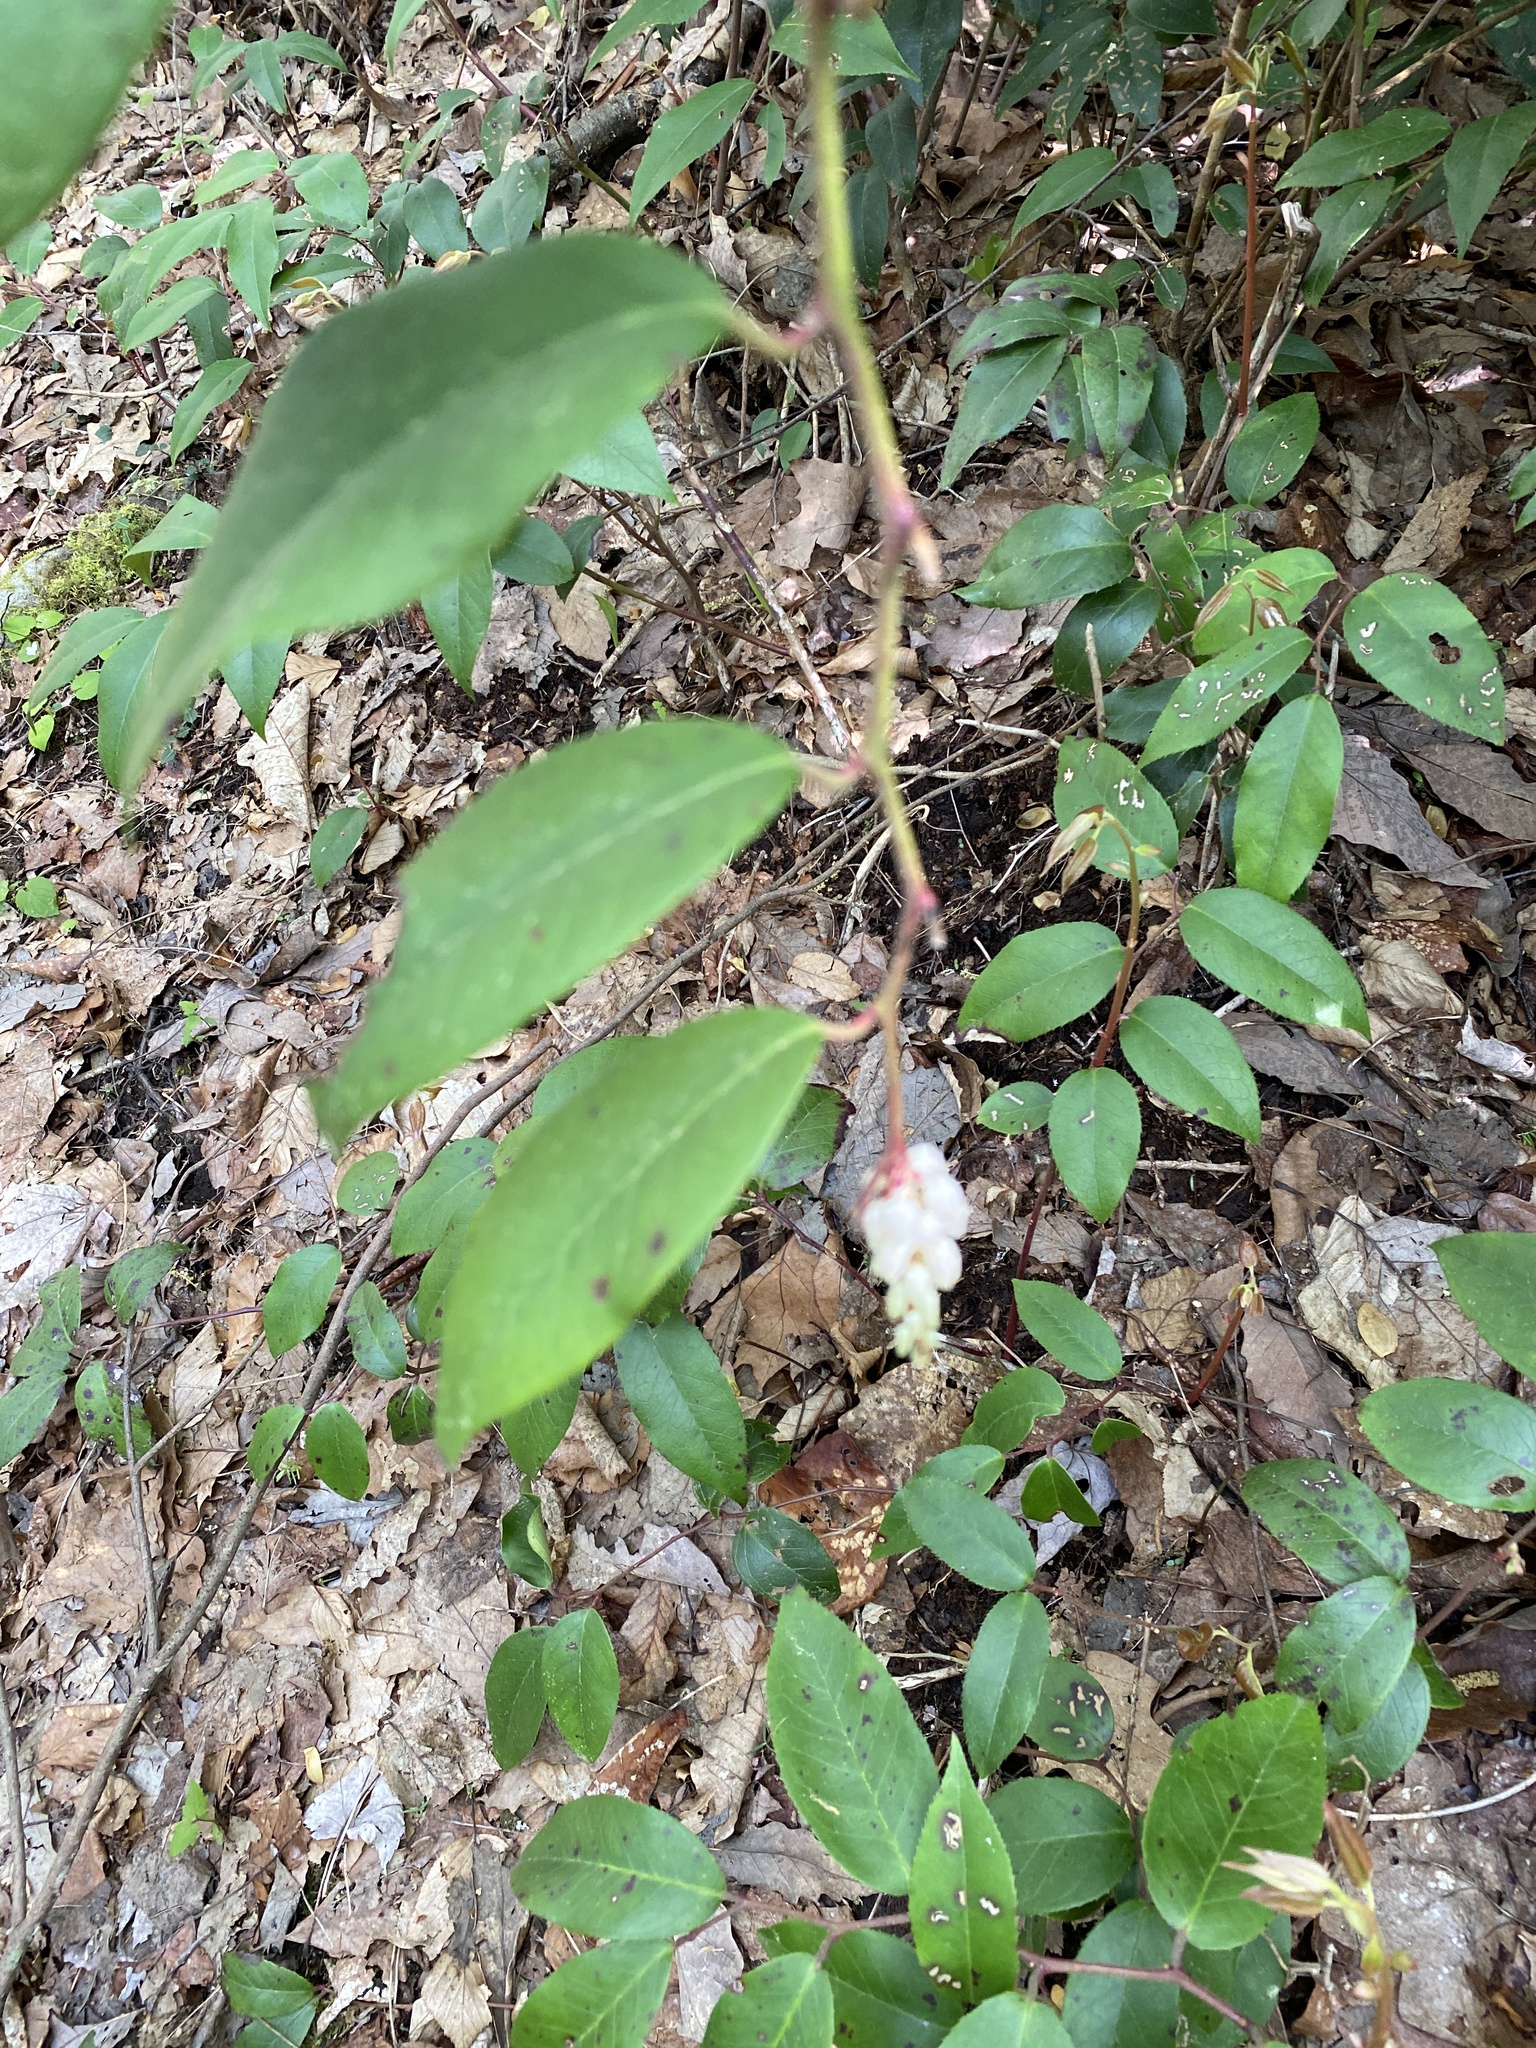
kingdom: Plantae
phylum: Tracheophyta
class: Magnoliopsida
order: Ericales
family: Ericaceae
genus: Leucothoe
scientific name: Leucothoe fontanesiana
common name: Fetterbush
